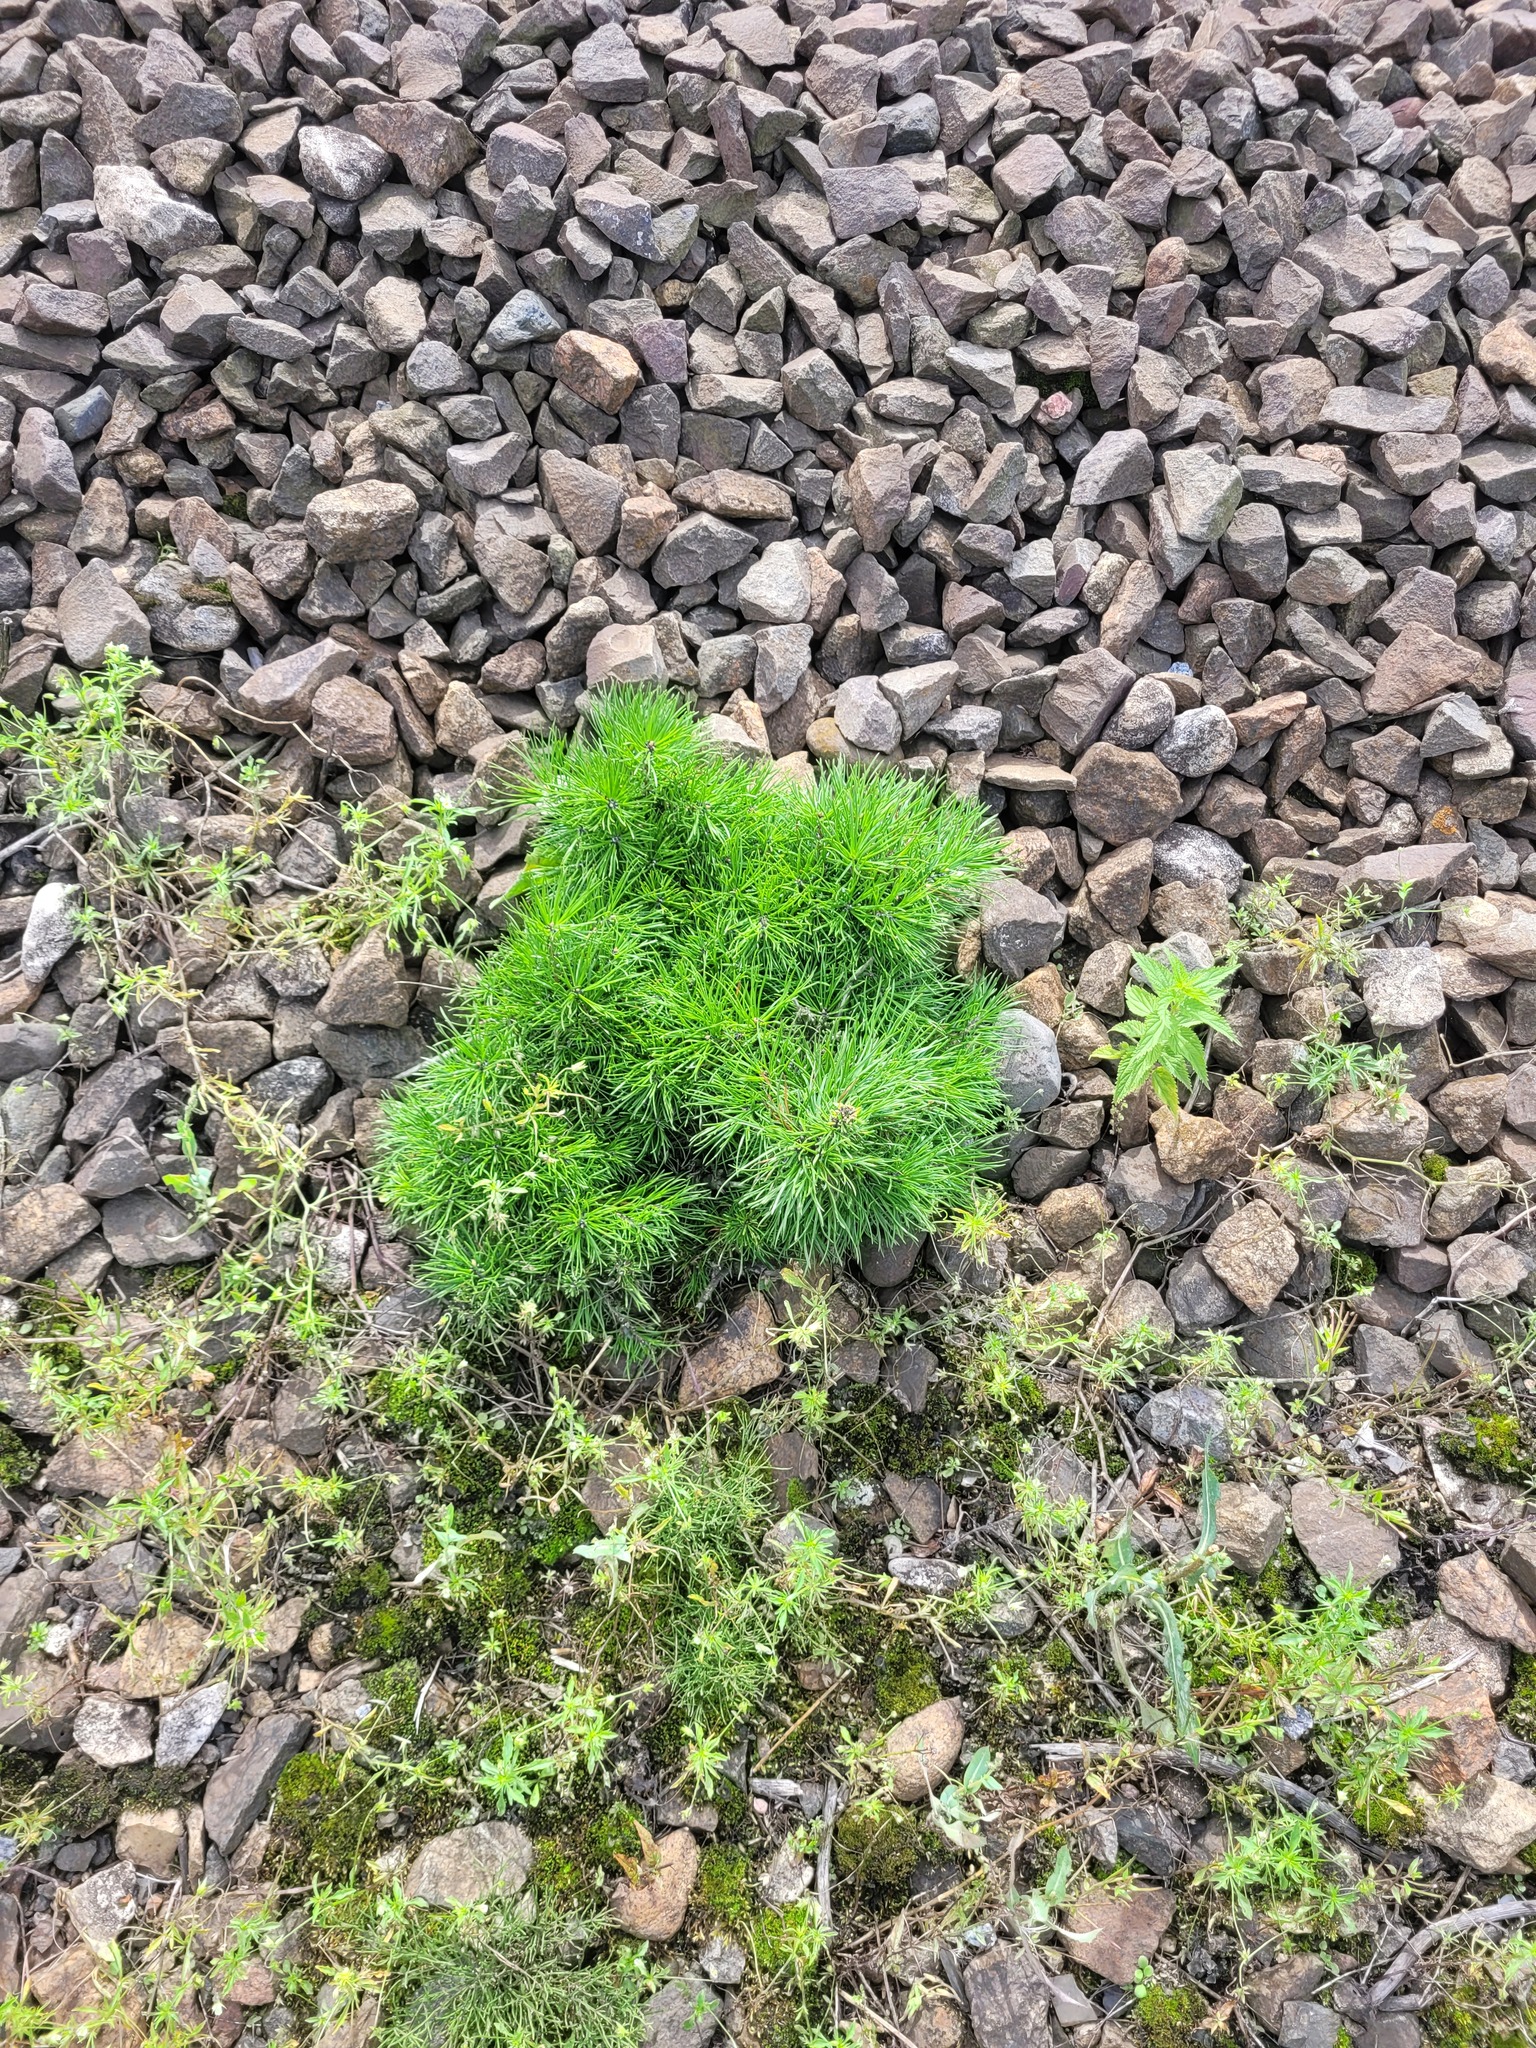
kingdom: Plantae
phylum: Tracheophyta
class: Pinopsida
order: Pinales
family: Pinaceae
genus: Pinus
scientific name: Pinus sylvestris
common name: Scots pine
